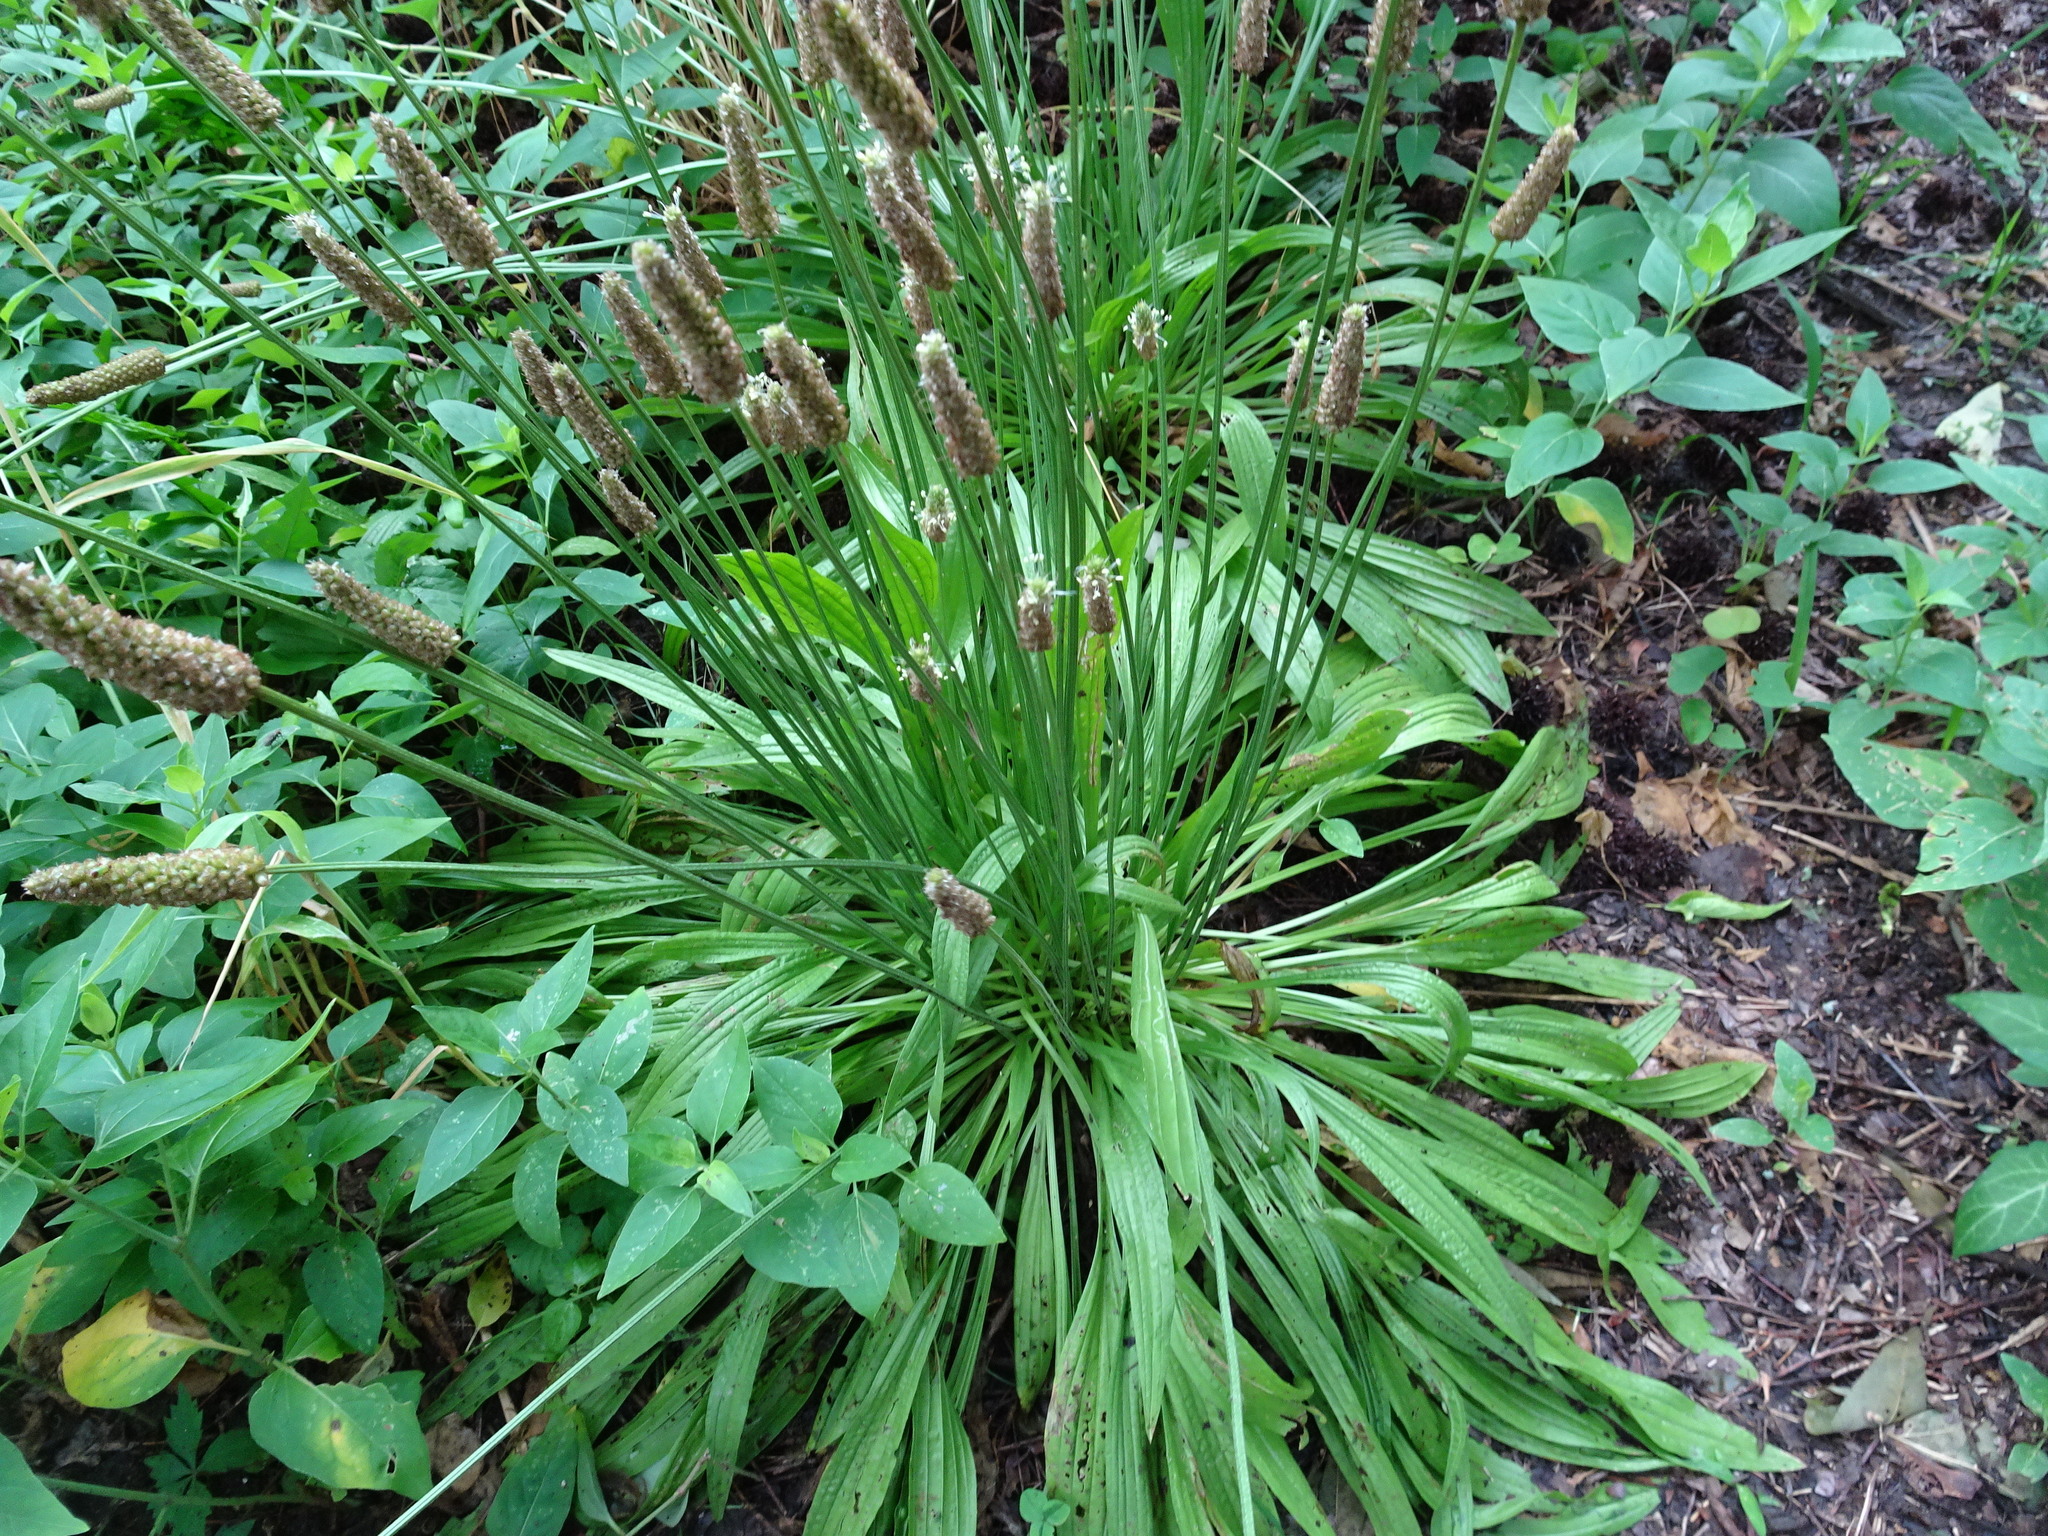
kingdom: Plantae
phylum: Tracheophyta
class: Magnoliopsida
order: Lamiales
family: Plantaginaceae
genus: Plantago
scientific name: Plantago lanceolata
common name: Ribwort plantain
